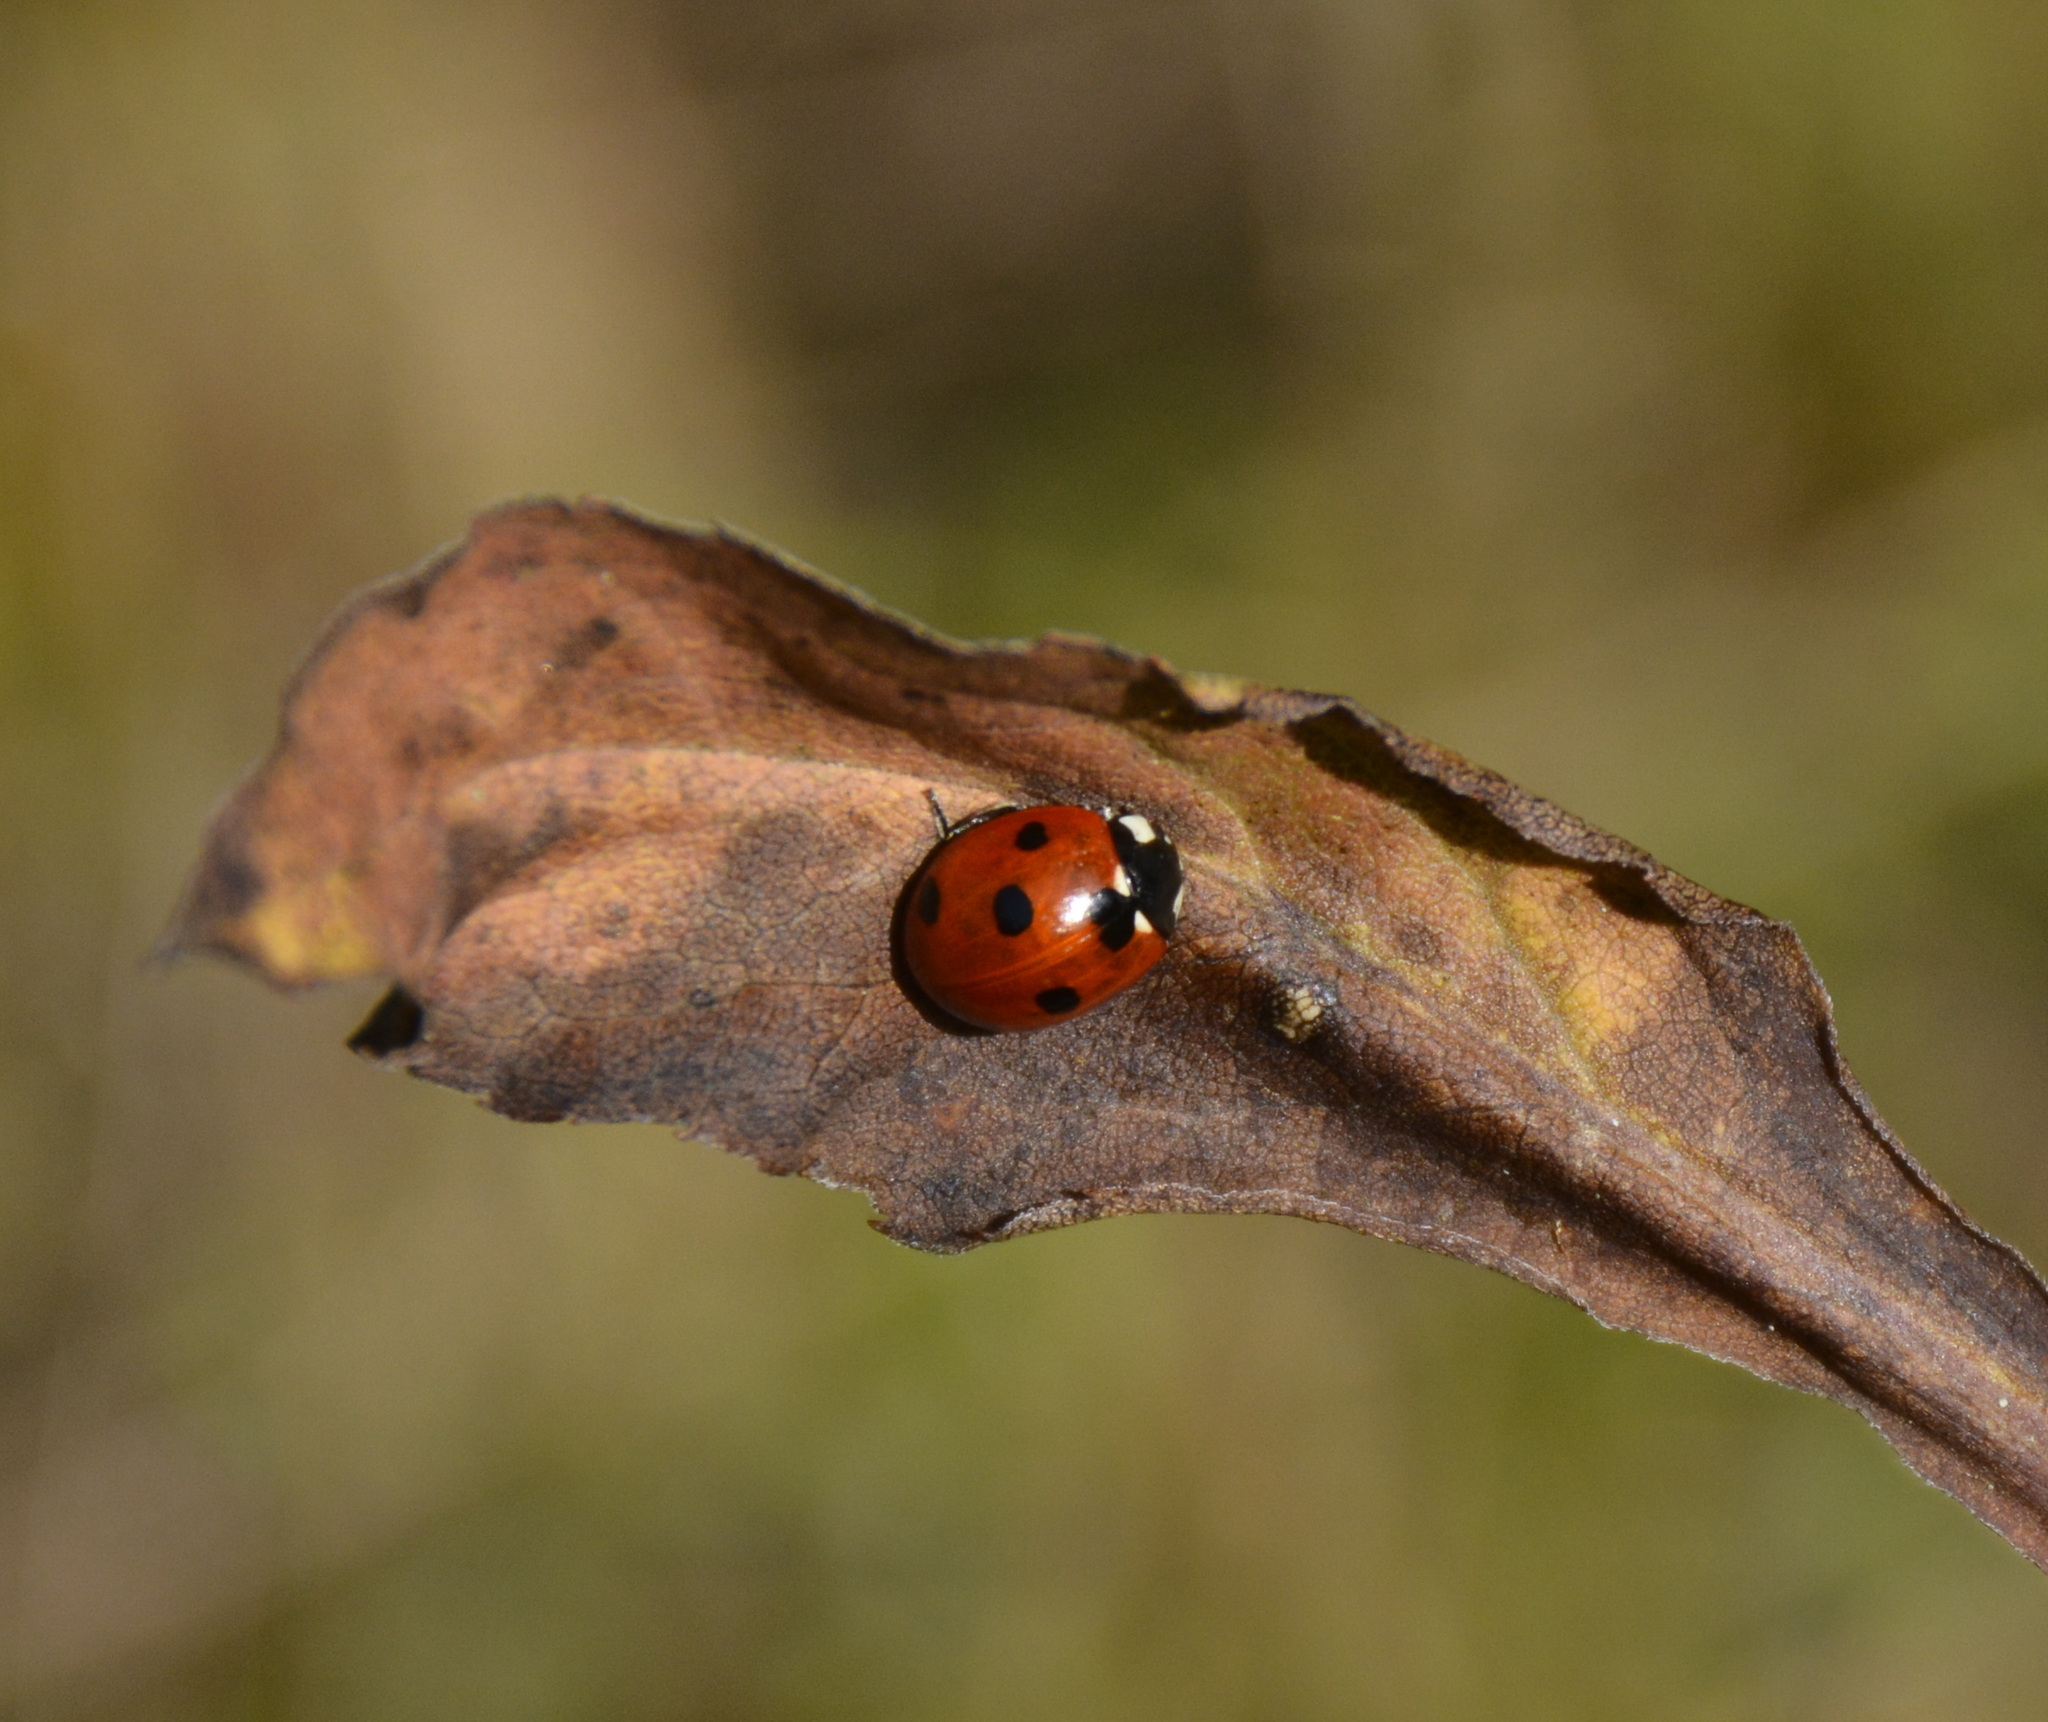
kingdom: Animalia
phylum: Arthropoda
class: Insecta
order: Coleoptera
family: Coccinellidae
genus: Coccinella
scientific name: Coccinella septempunctata
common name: Sevenspotted lady beetle
